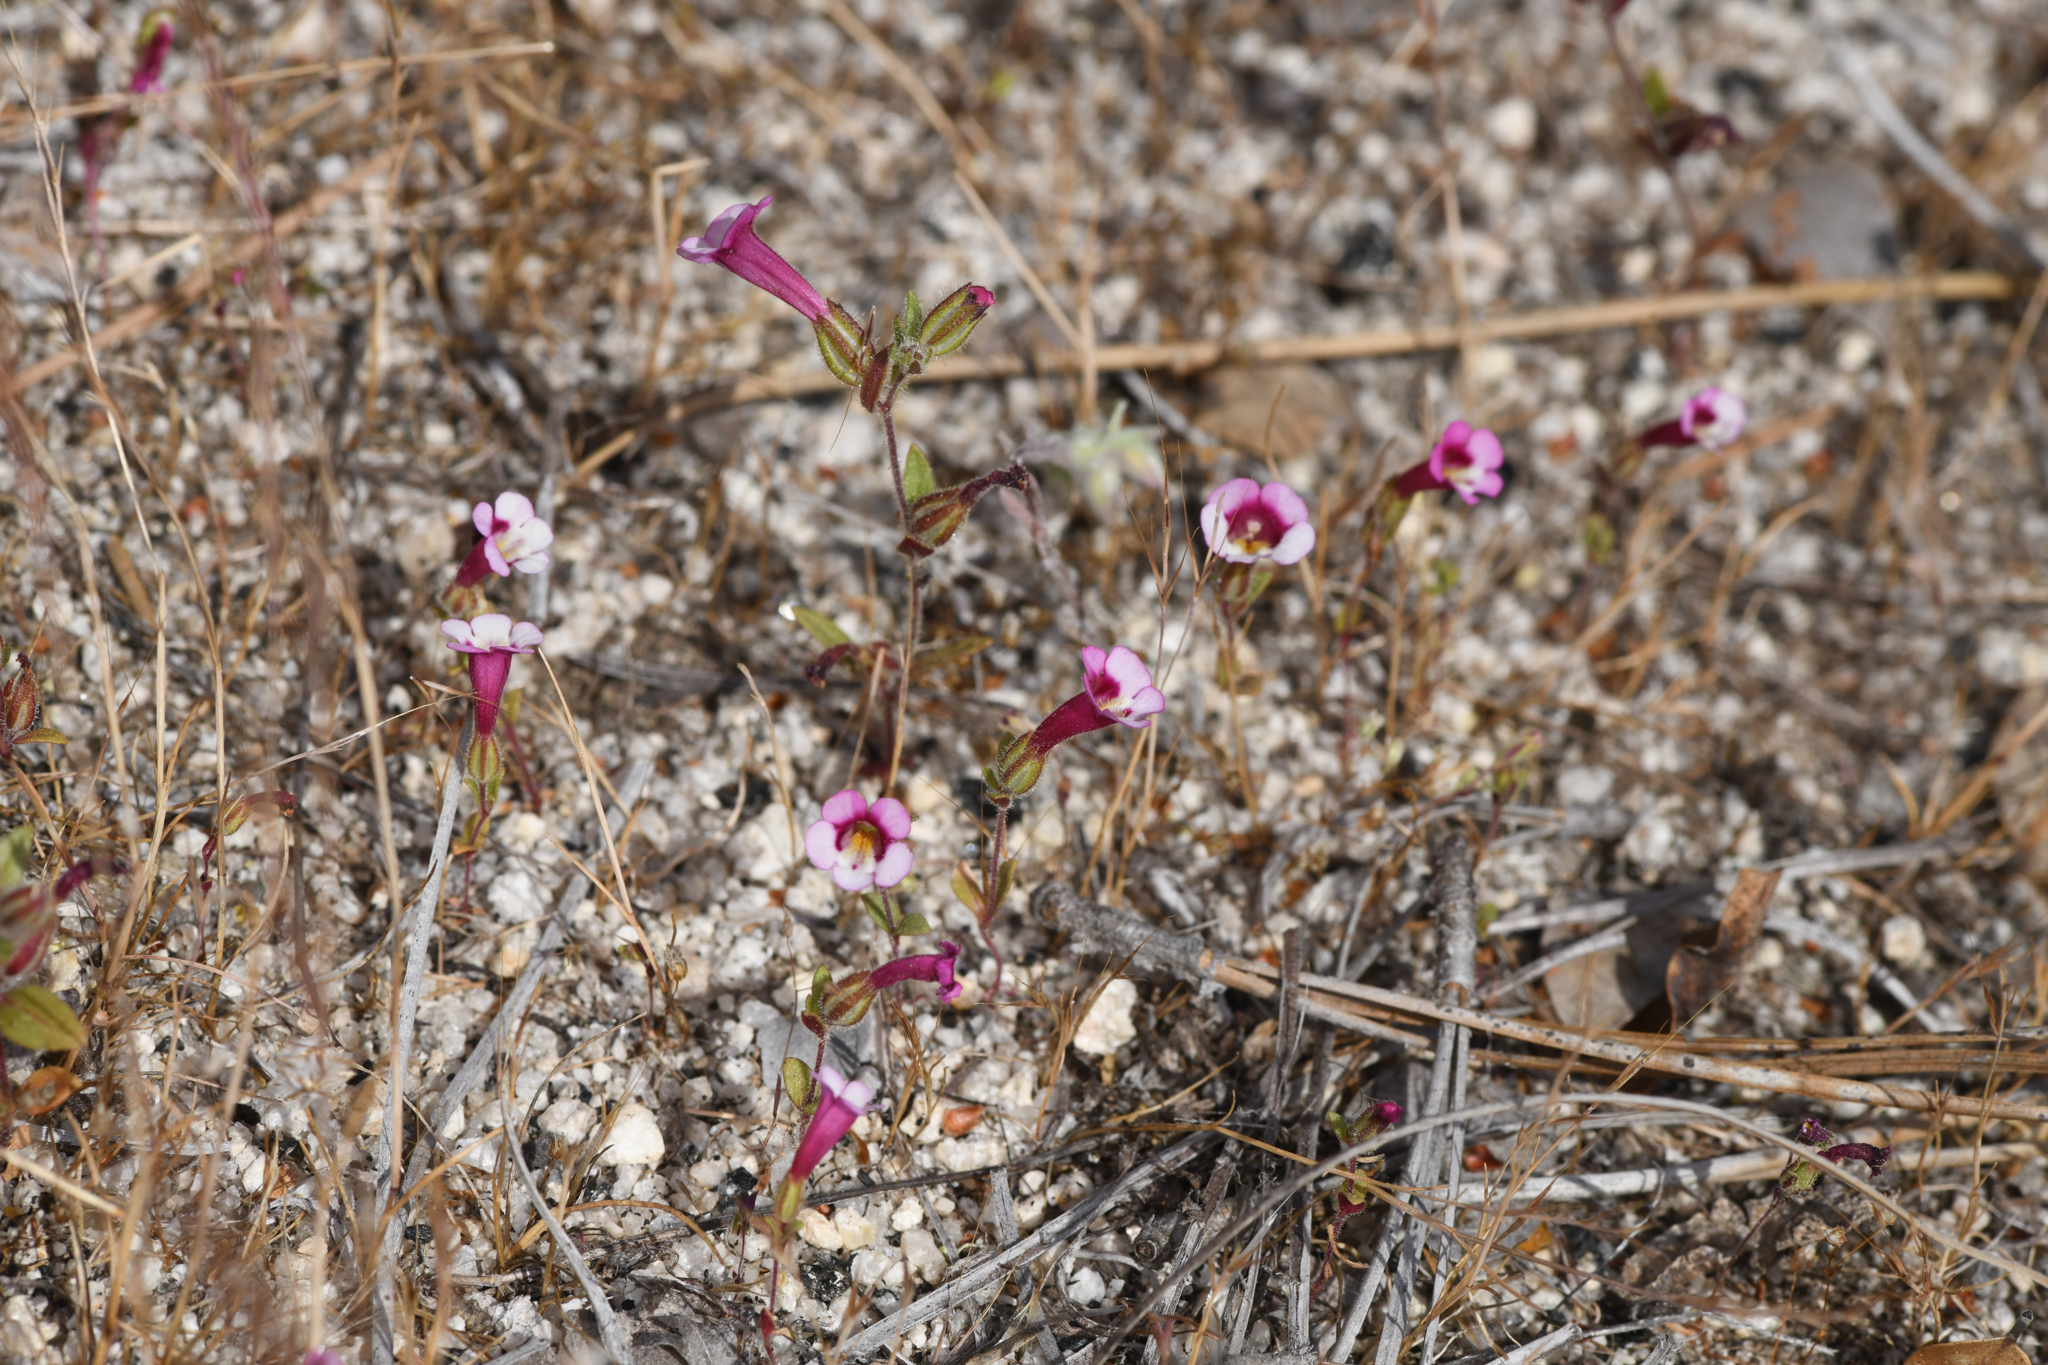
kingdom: Plantae
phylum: Tracheophyta
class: Magnoliopsida
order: Lamiales
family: Phrymaceae
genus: Diplacus
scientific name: Diplacus compactus
